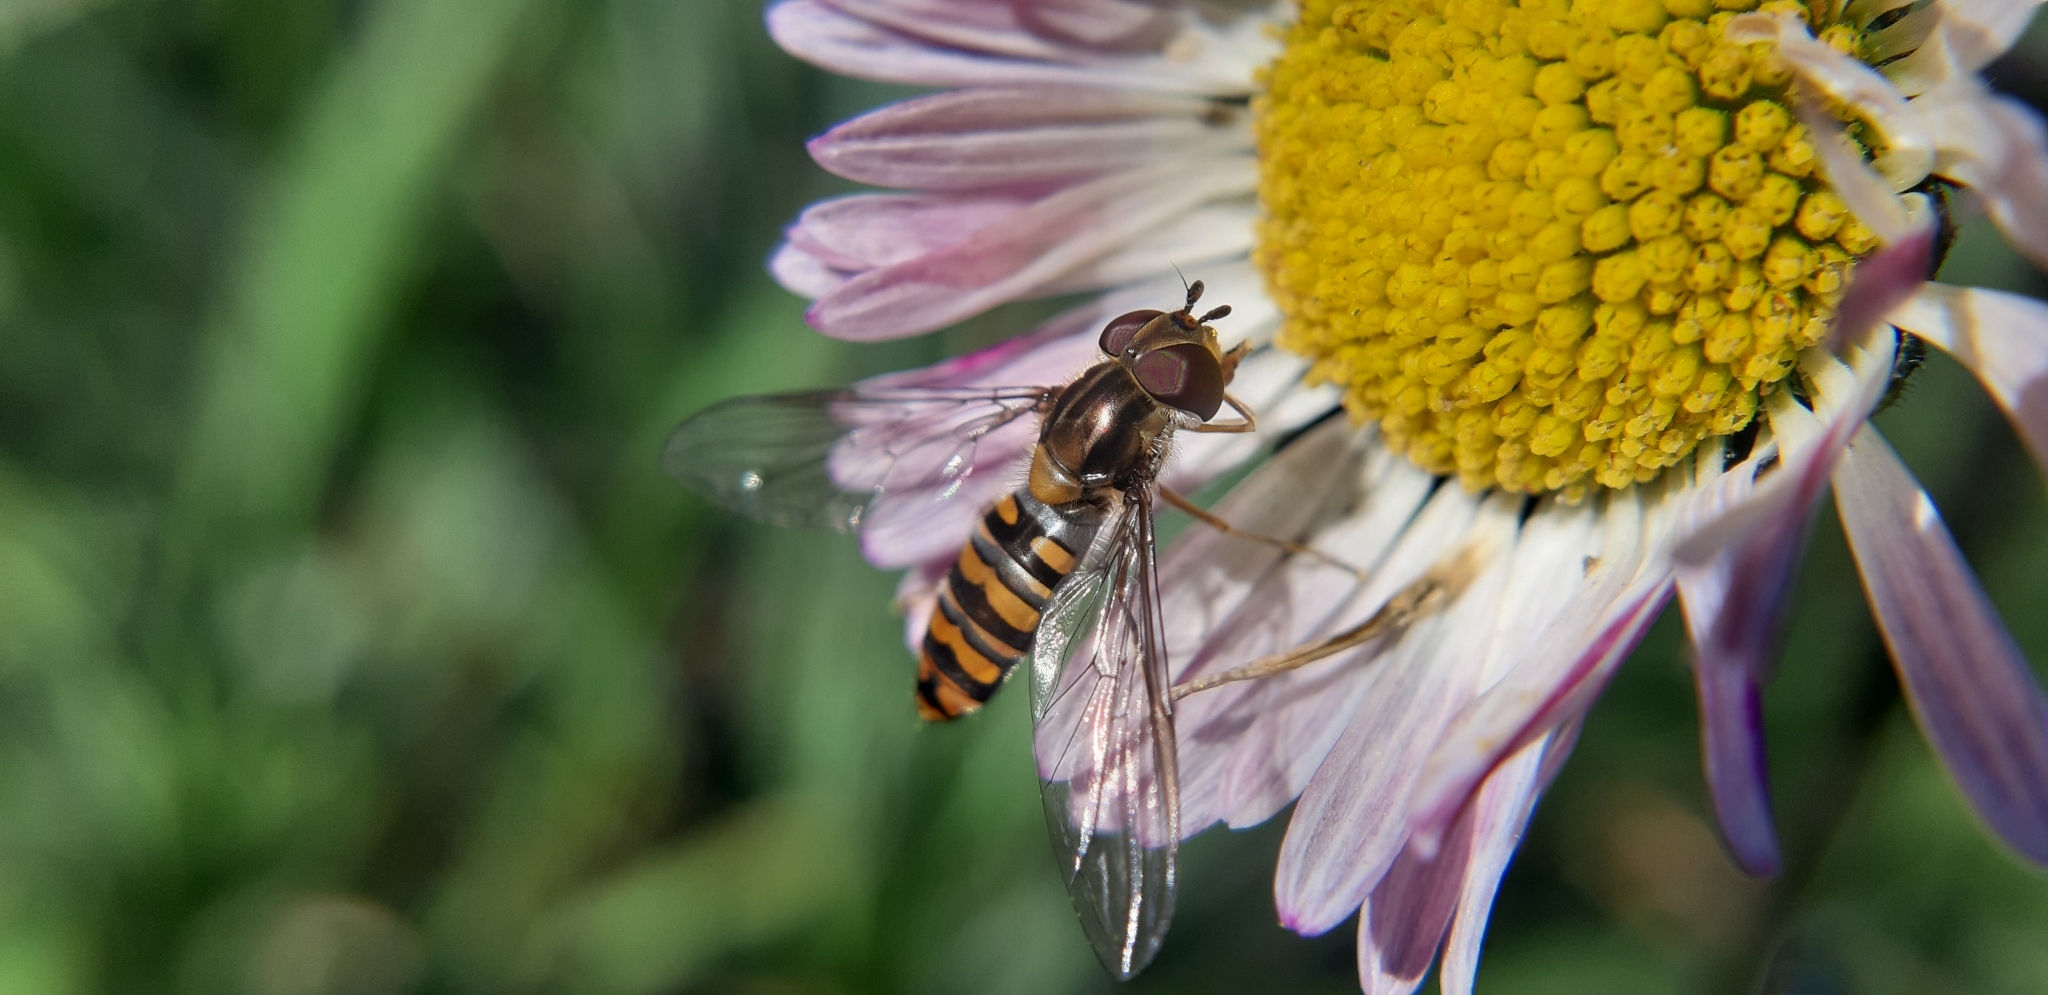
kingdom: Animalia
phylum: Arthropoda
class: Insecta
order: Diptera
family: Syrphidae
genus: Episyrphus
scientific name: Episyrphus balteatus
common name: Marmalade hoverfly
